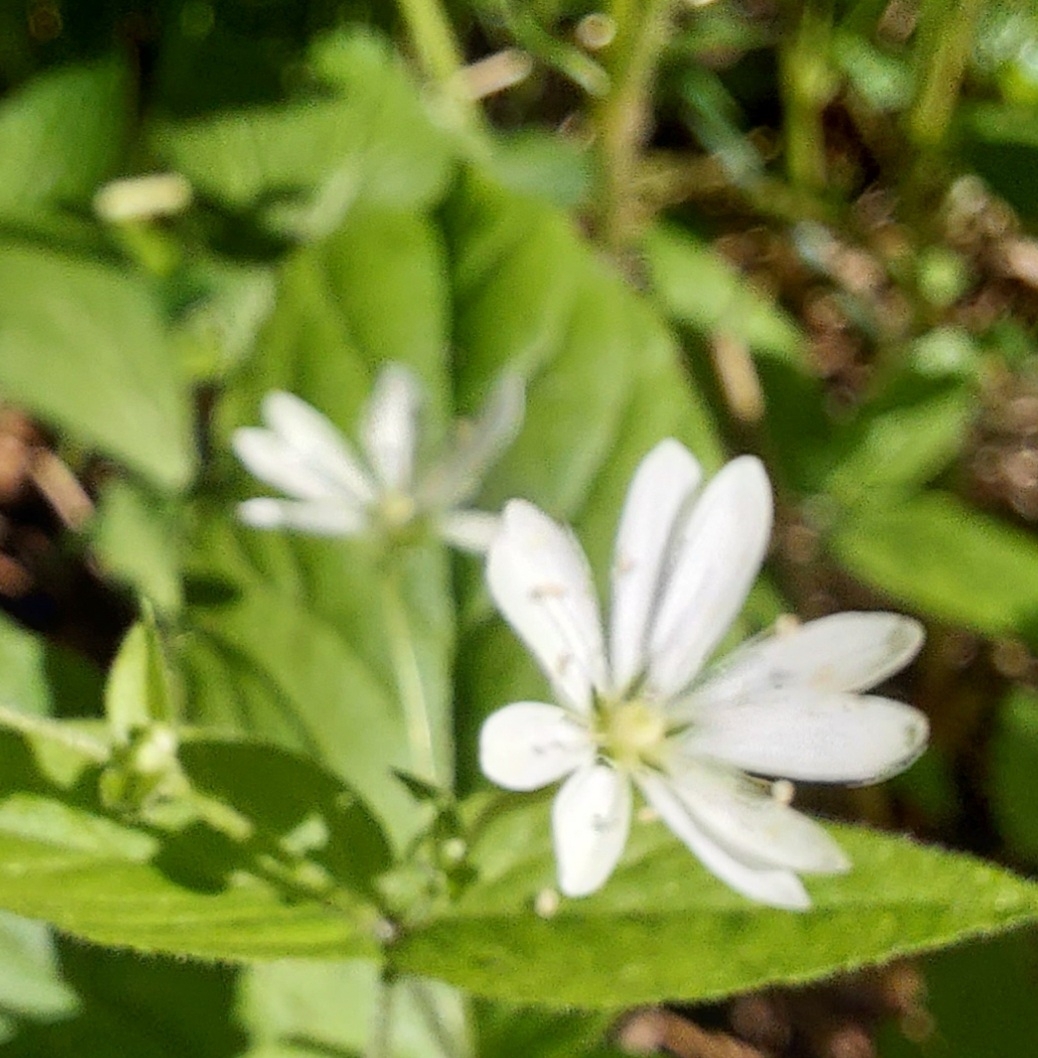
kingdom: Plantae
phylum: Tracheophyta
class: Magnoliopsida
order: Caryophyllales
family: Caryophyllaceae
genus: Stellaria
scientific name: Stellaria bungeana
